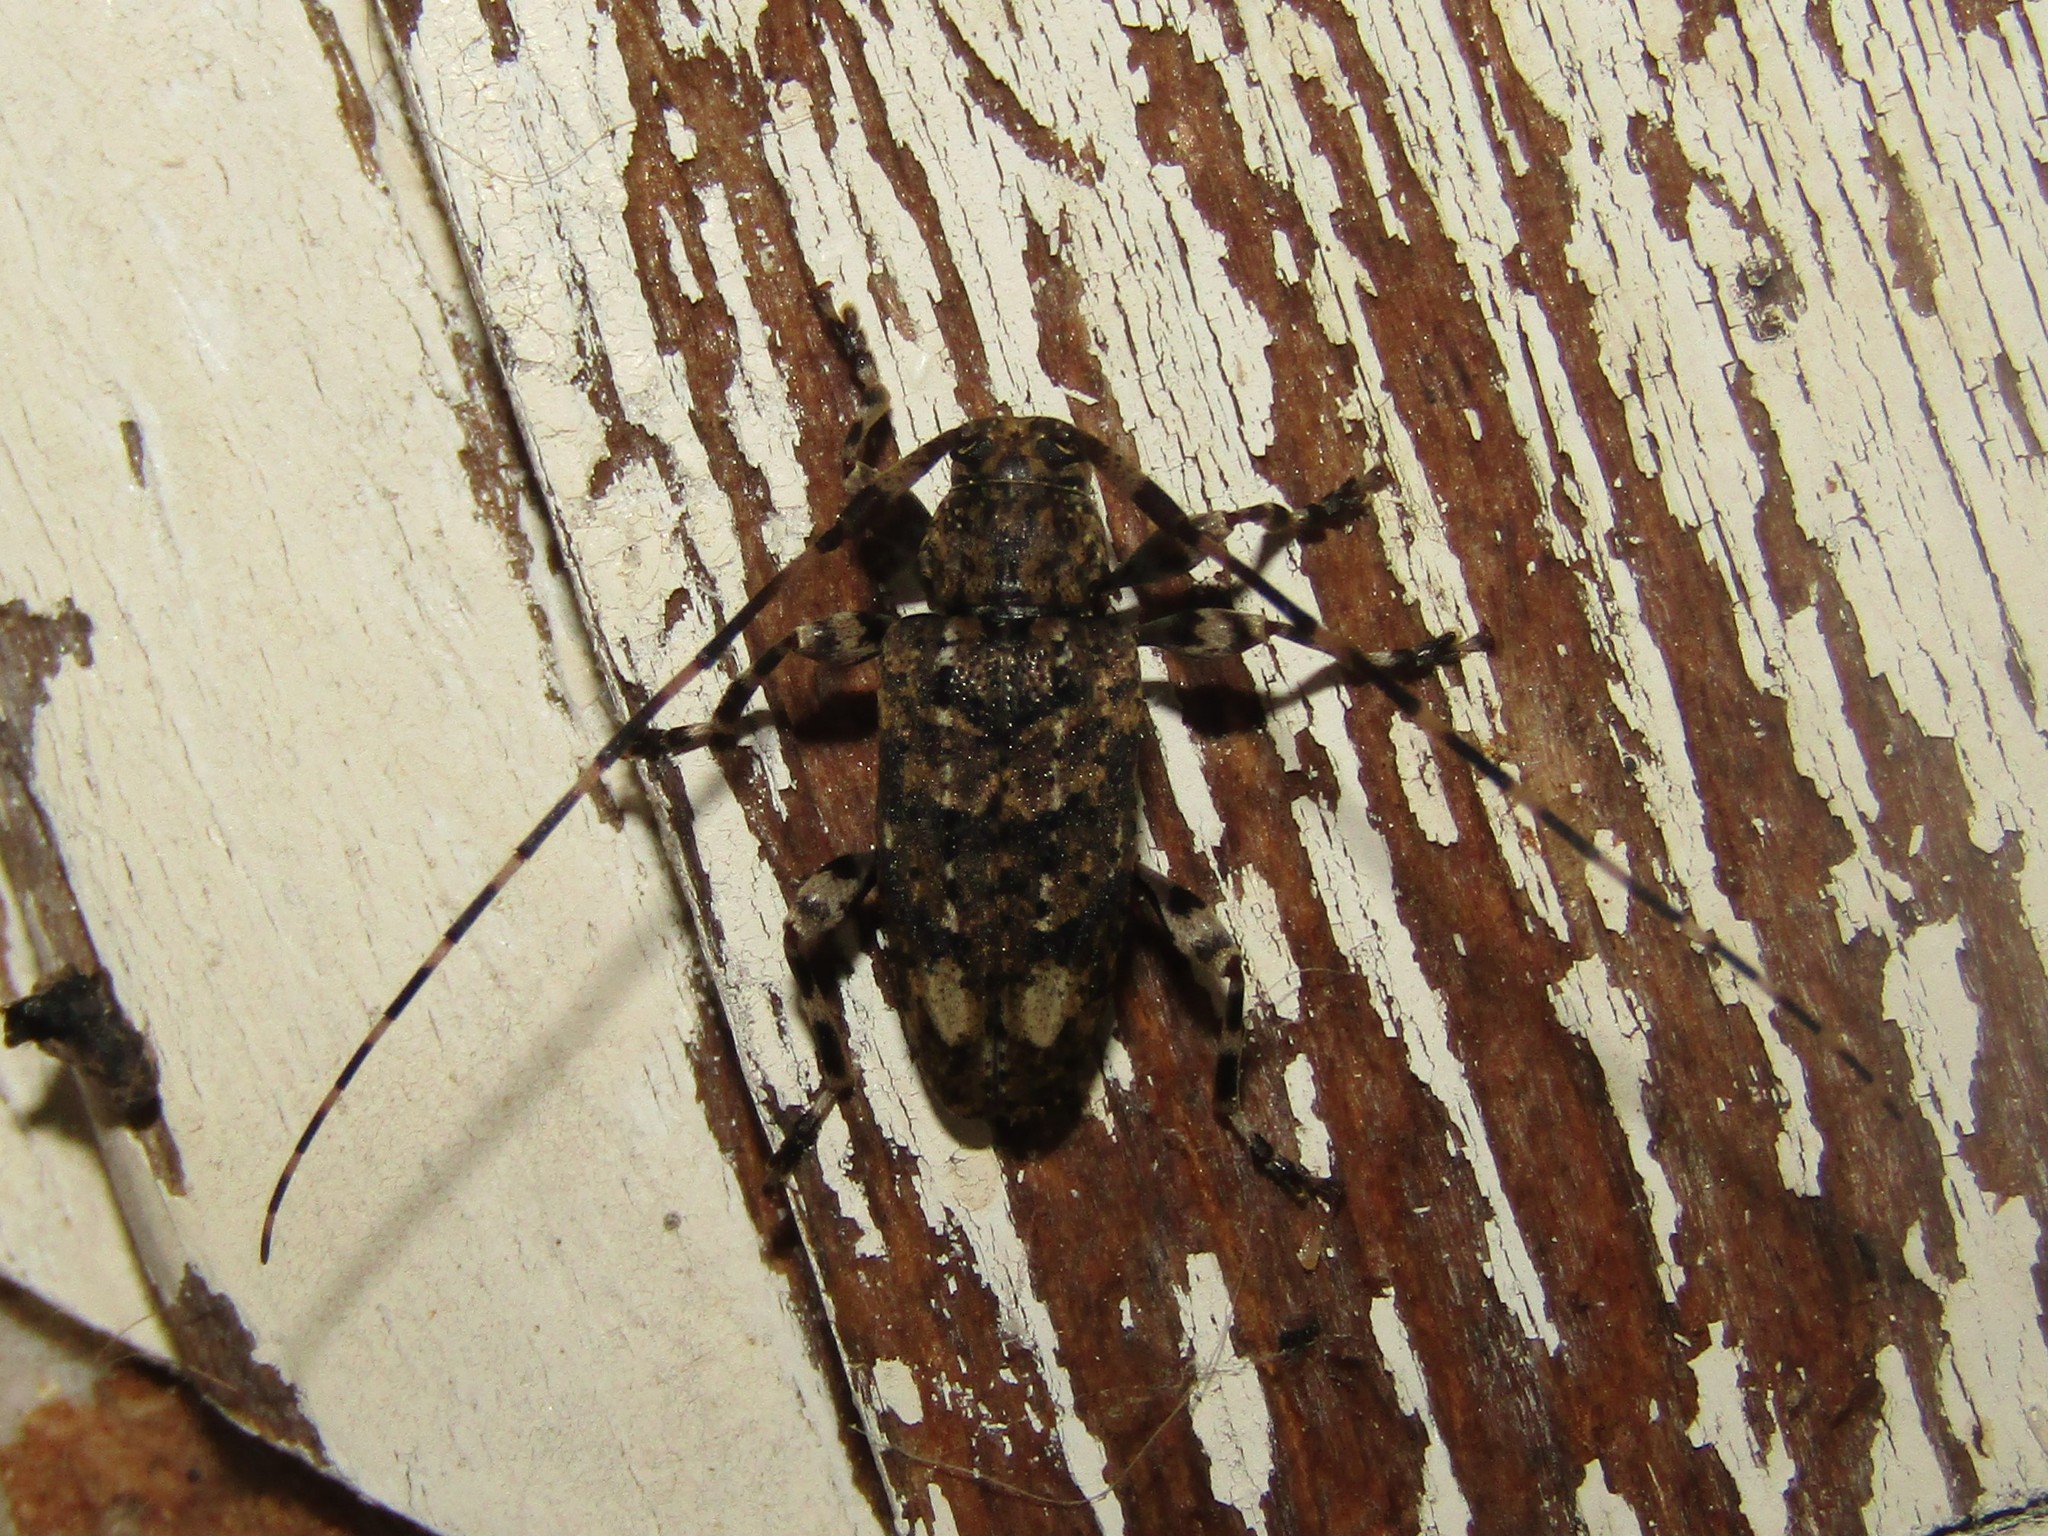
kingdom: Animalia
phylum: Arthropoda
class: Insecta
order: Coleoptera
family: Cerambycidae
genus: Astyleiopus
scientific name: Astyleiopus variegatus
